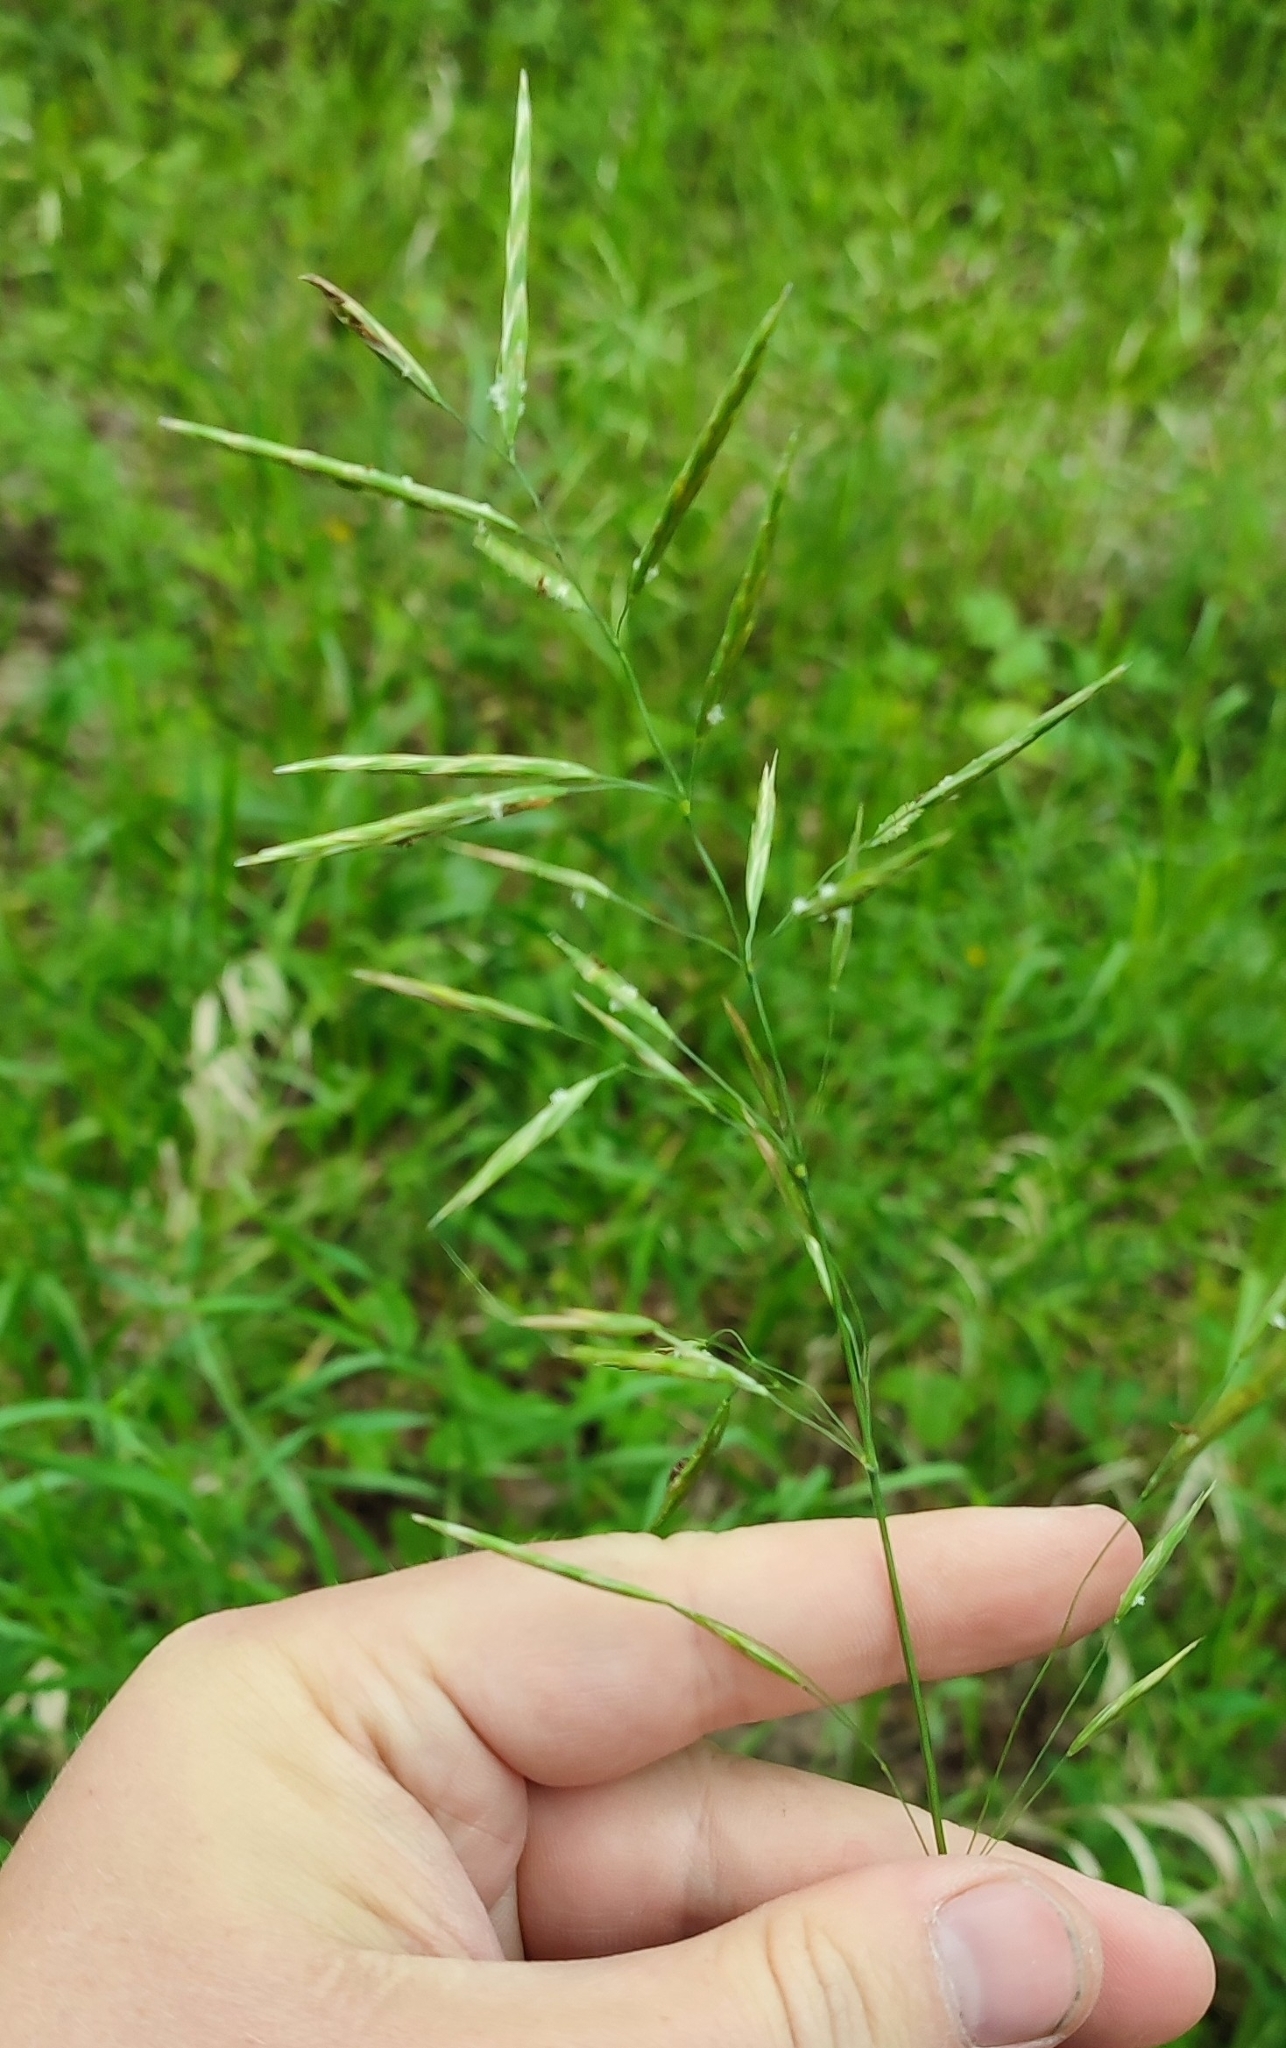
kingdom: Plantae
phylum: Tracheophyta
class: Liliopsida
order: Poales
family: Poaceae
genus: Bromus
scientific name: Bromus inermis
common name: Smooth brome
